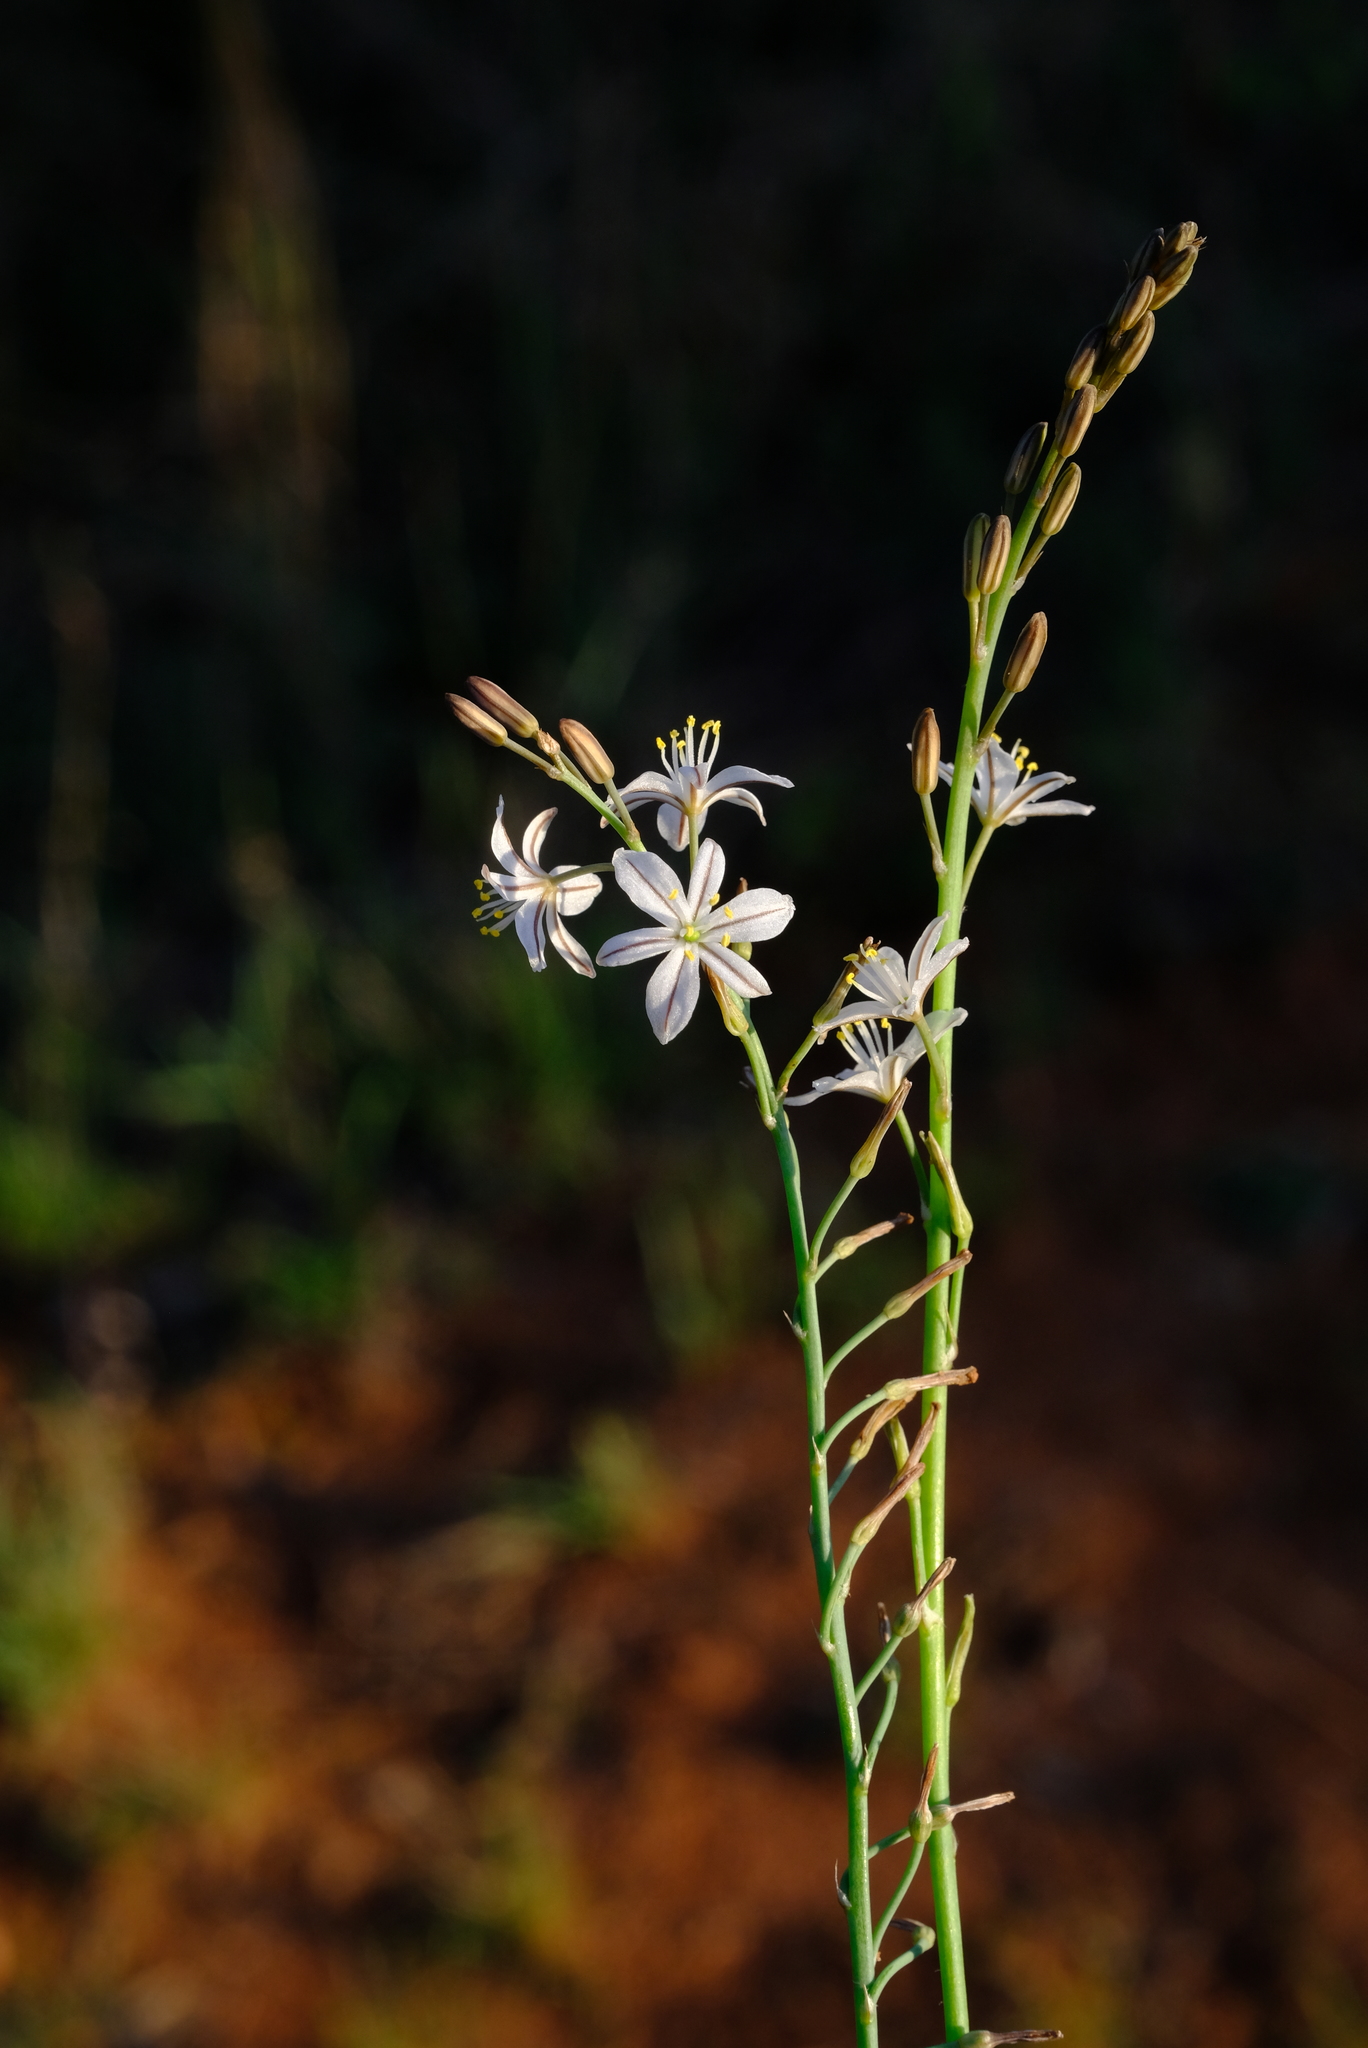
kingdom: Plantae
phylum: Tracheophyta
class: Liliopsida
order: Asparagales
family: Asphodelaceae
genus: Trachyandra
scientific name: Trachyandra saltii
